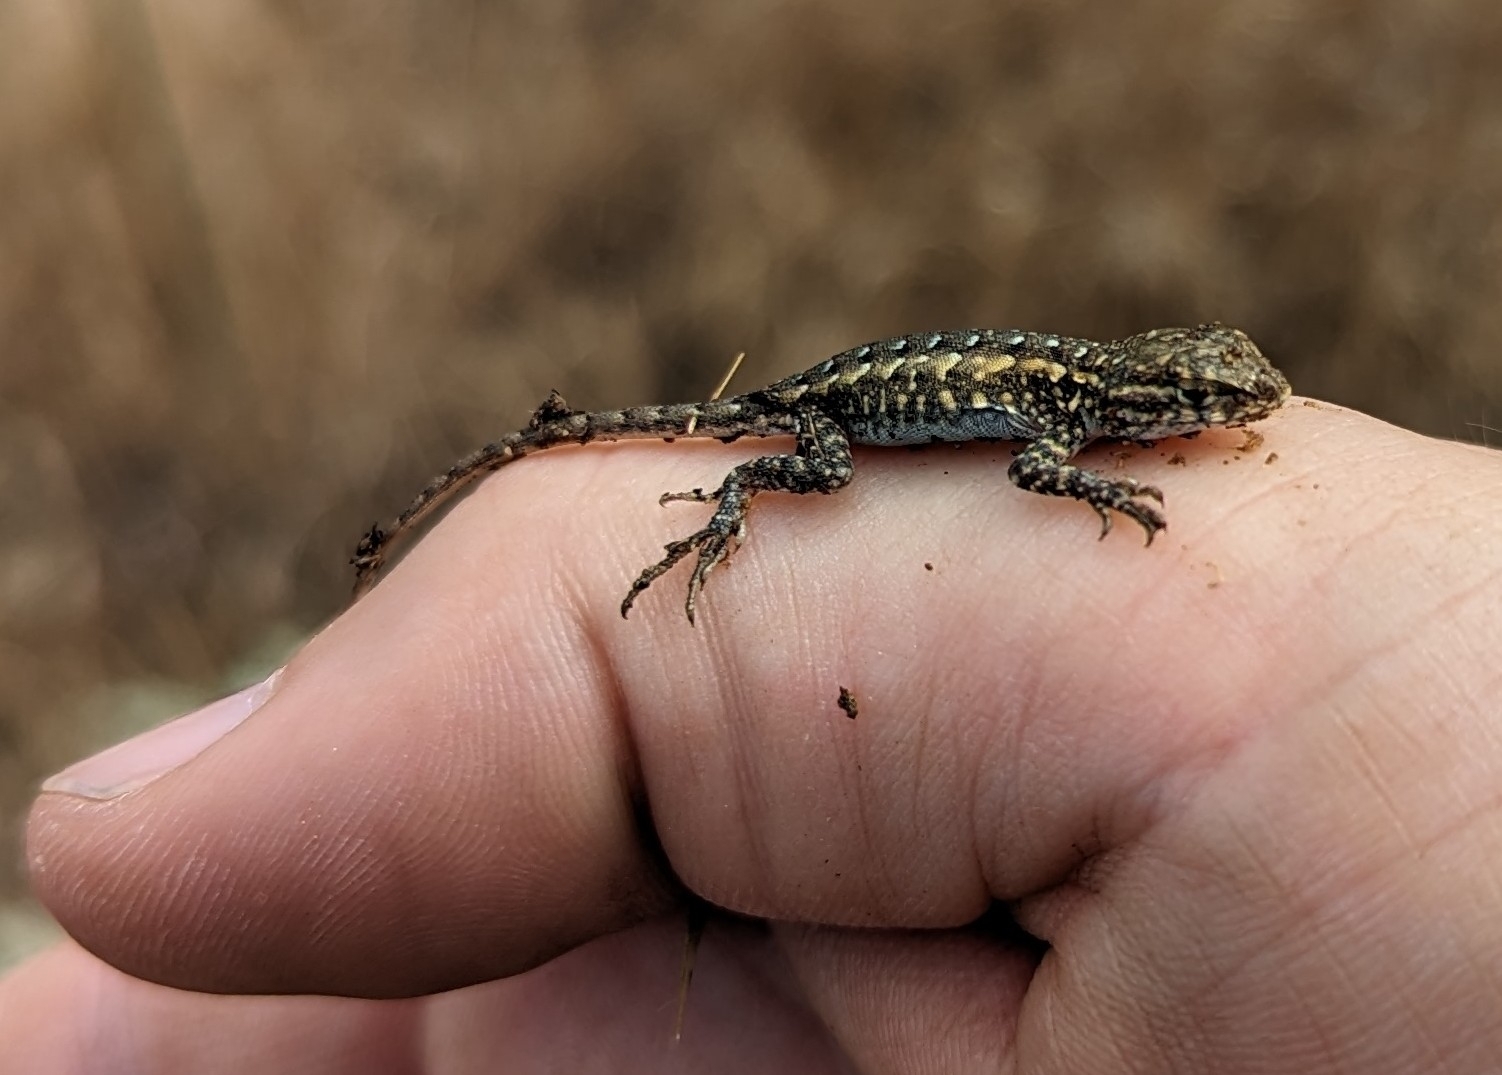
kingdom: Animalia
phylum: Chordata
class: Squamata
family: Phrynosomatidae
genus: Uta
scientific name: Uta stansburiana
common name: Side-blotched lizard
